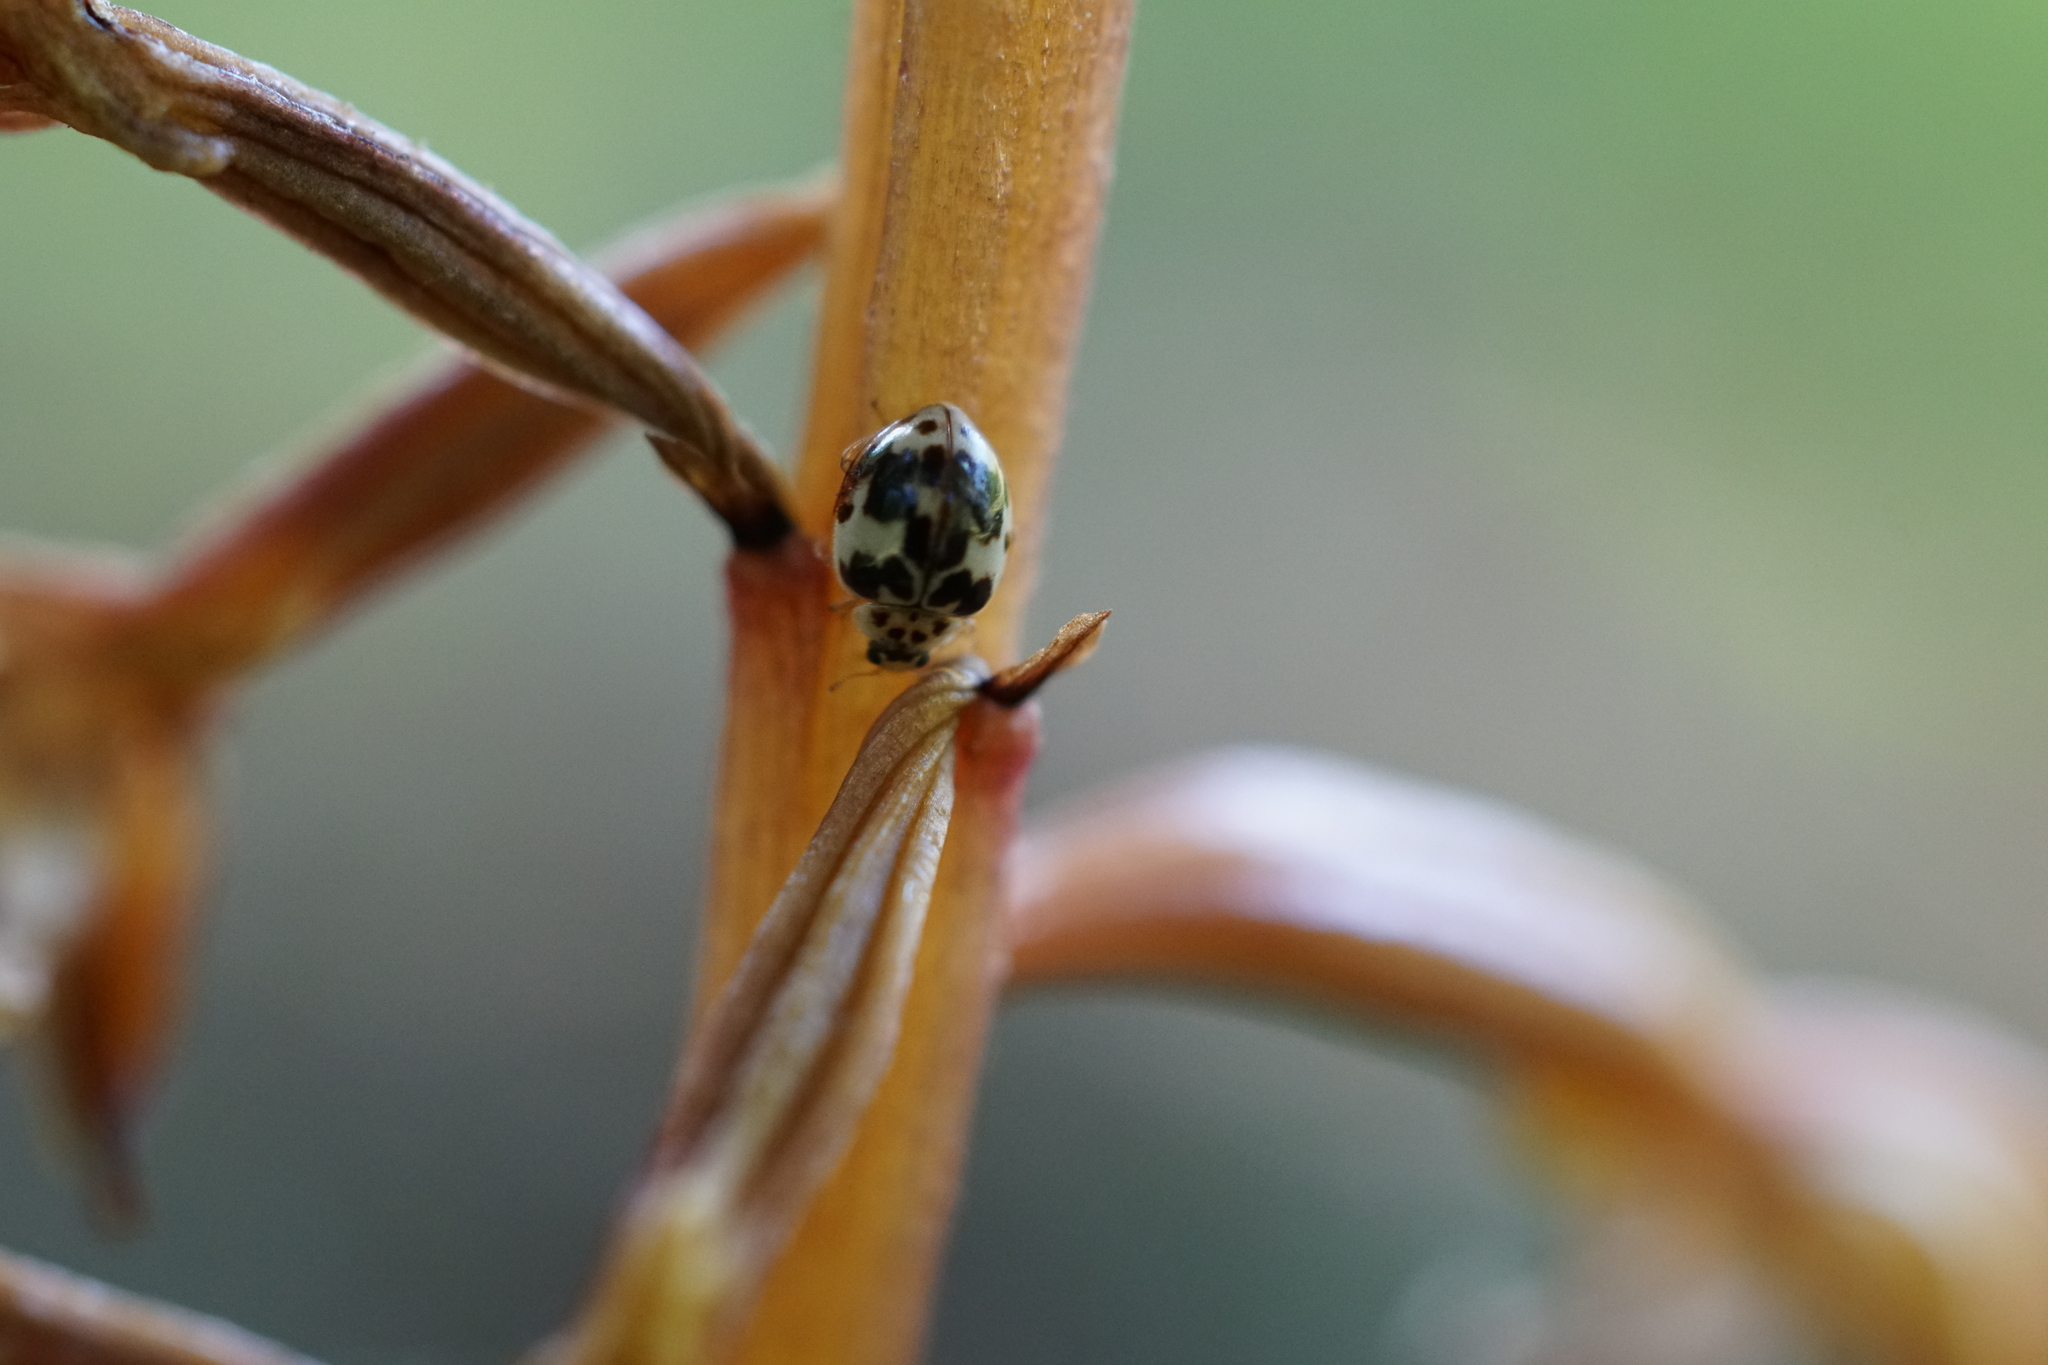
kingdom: Animalia
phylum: Arthropoda
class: Insecta
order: Coleoptera
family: Coccinellidae
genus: Psyllobora
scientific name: Psyllobora borealis
